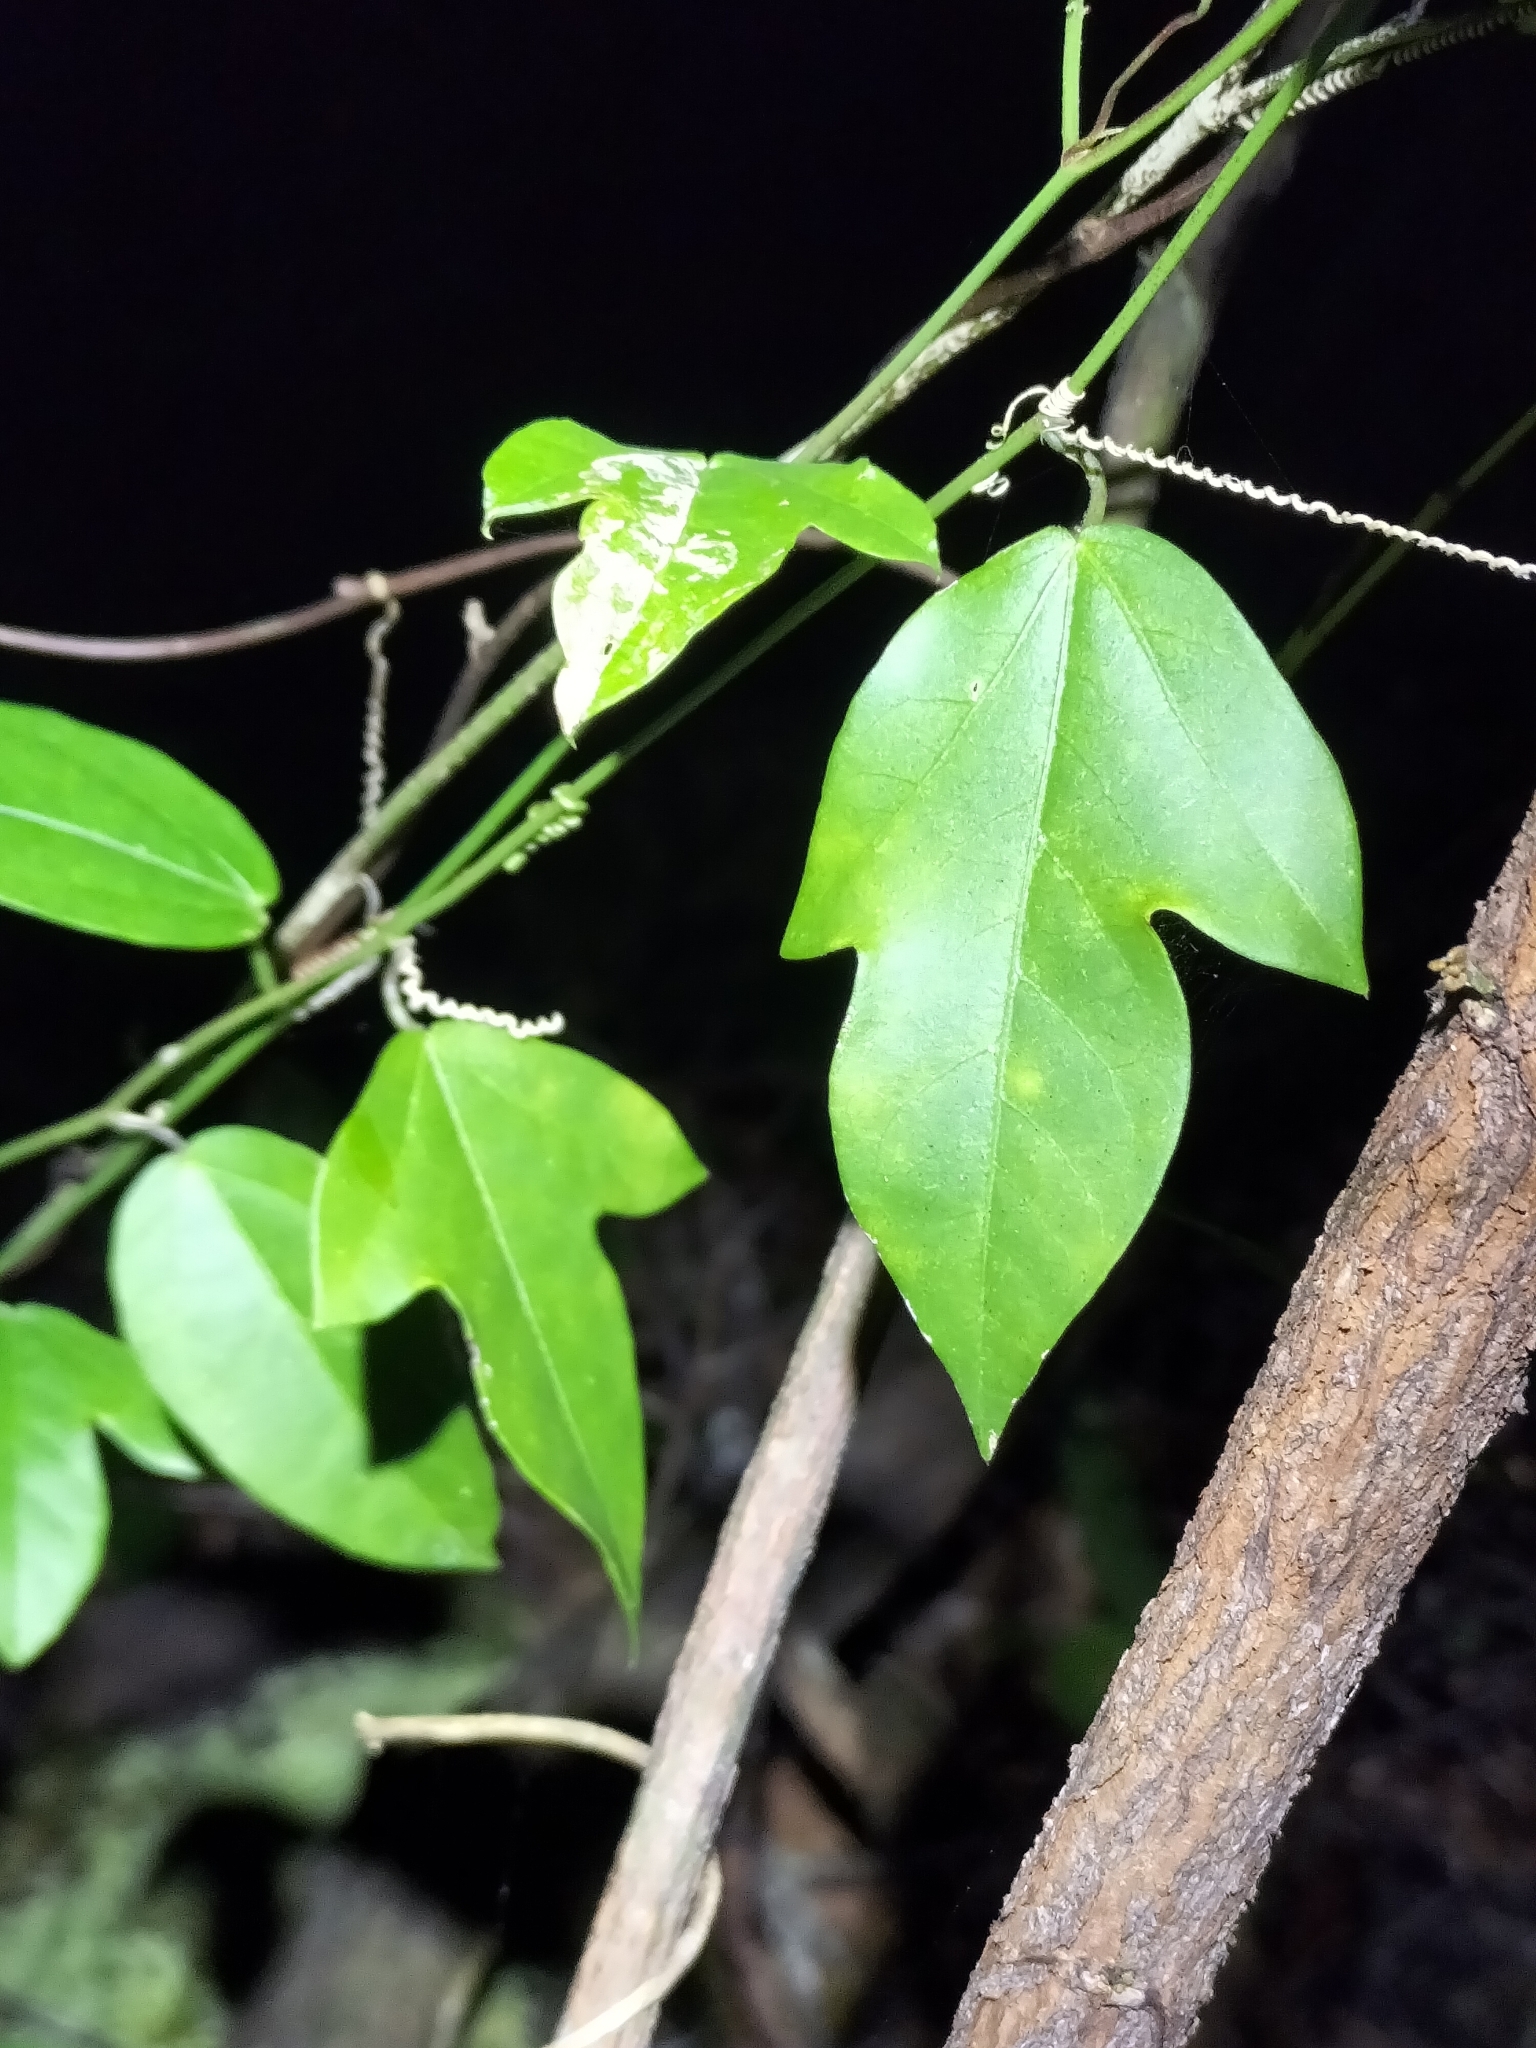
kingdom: Plantae
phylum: Tracheophyta
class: Magnoliopsida
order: Malpighiales
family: Passifloraceae
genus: Passiflora
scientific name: Passiflora pallida
